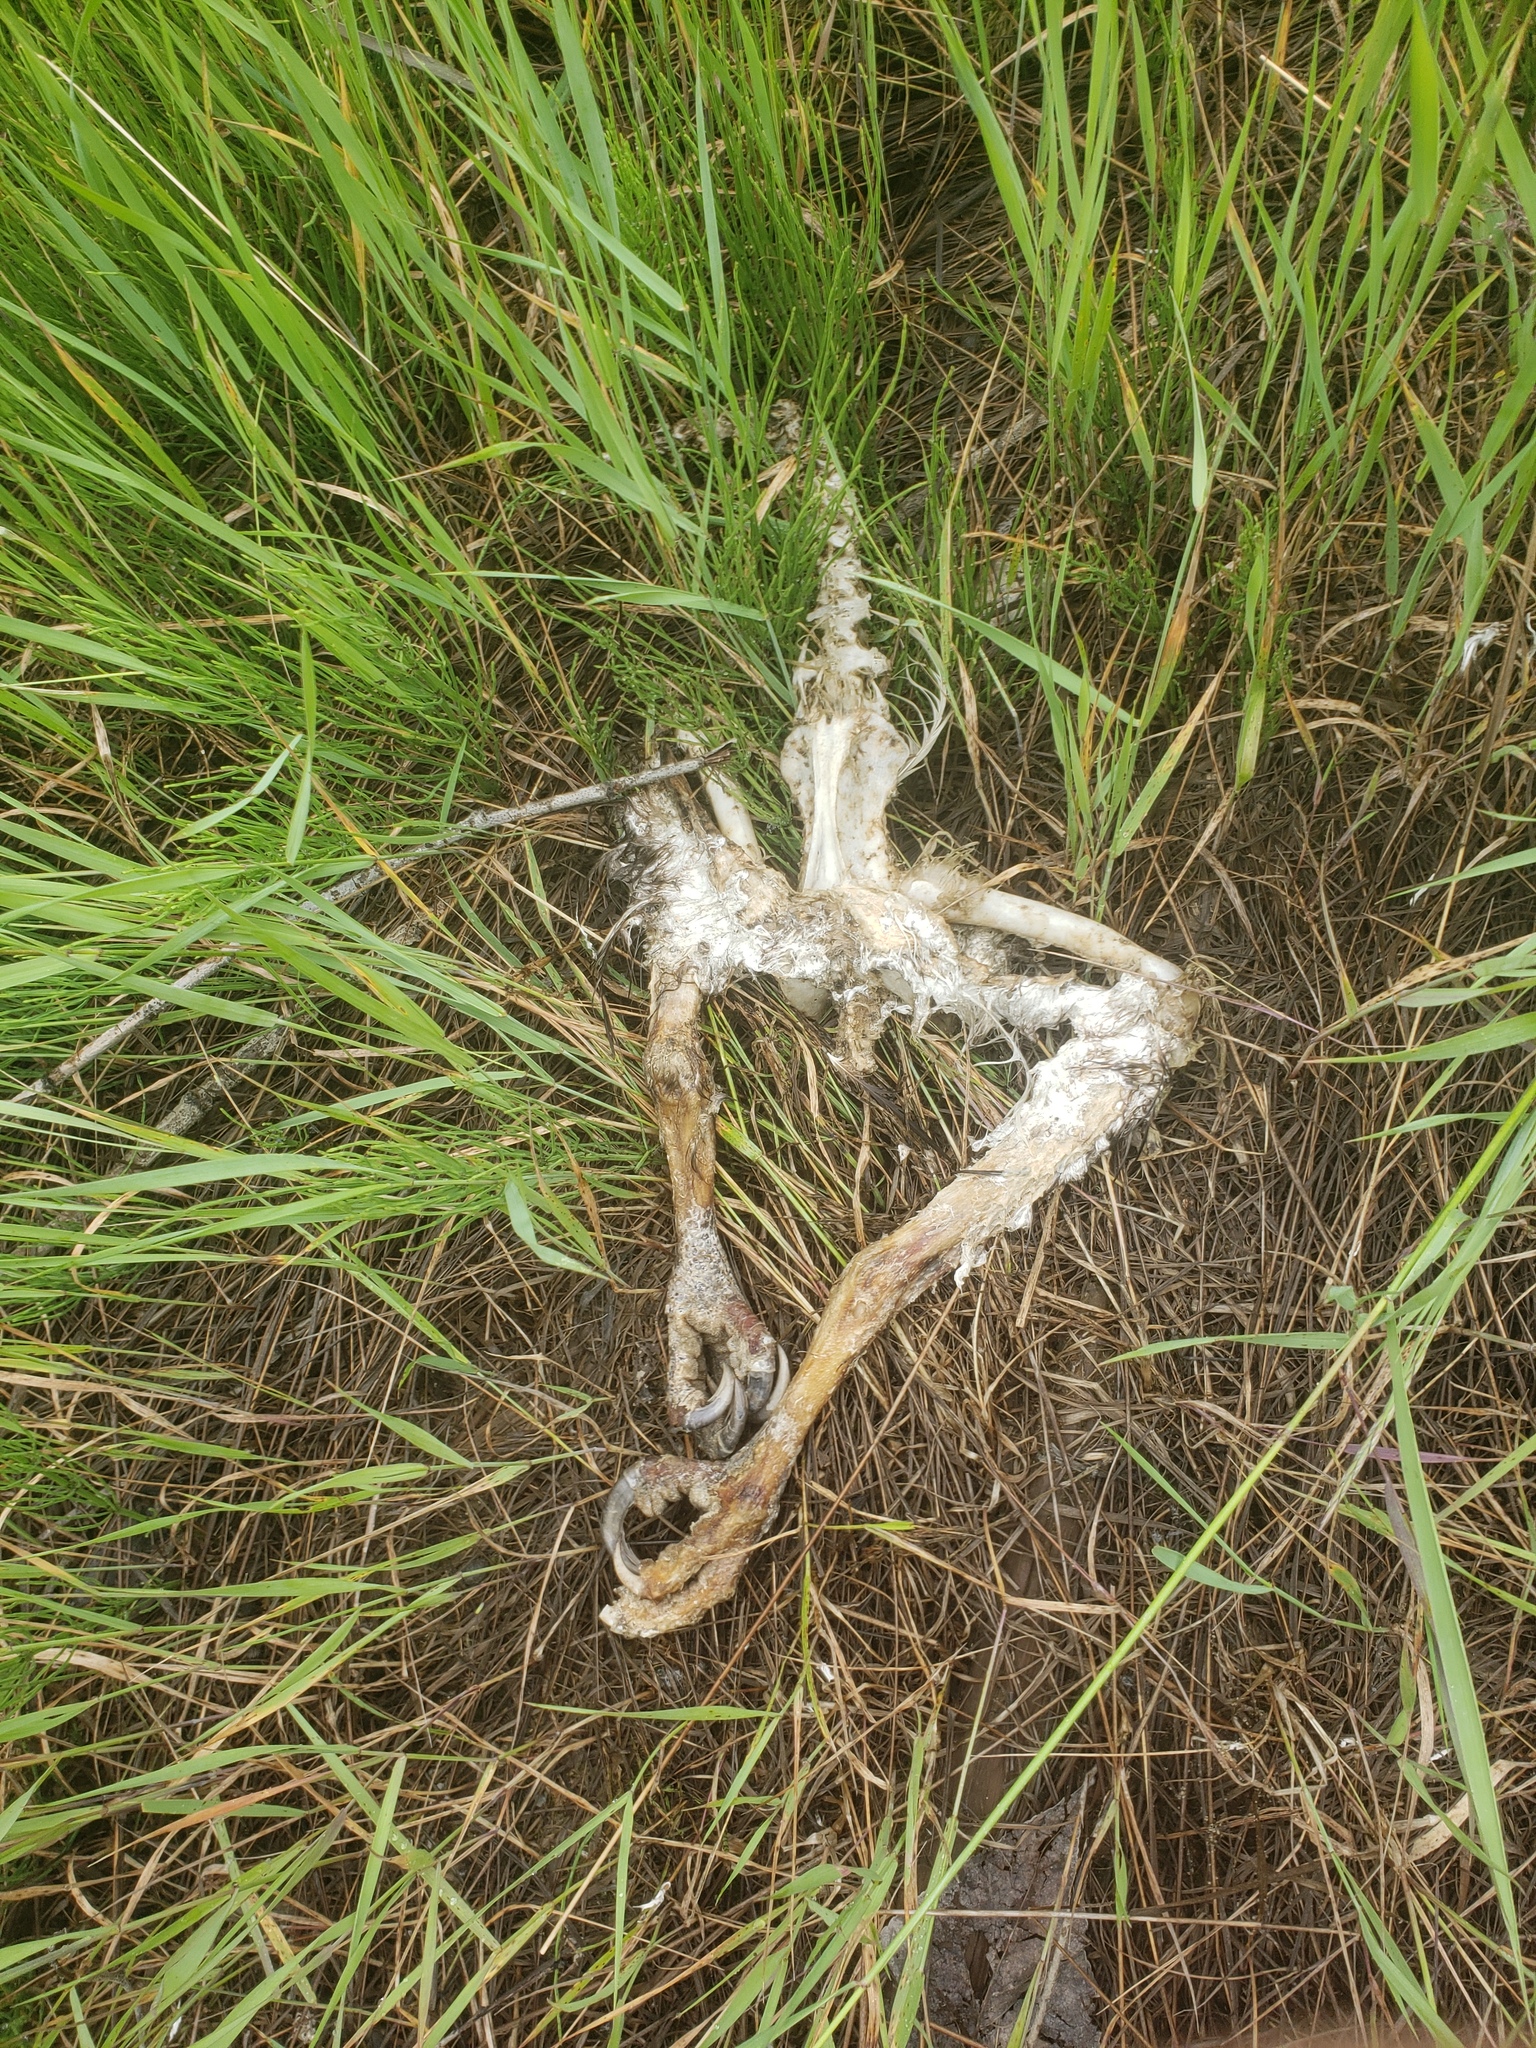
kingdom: Animalia
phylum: Chordata
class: Aves
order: Accipitriformes
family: Accipitridae
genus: Haliaeetus
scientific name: Haliaeetus leucocephalus
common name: Bald eagle
